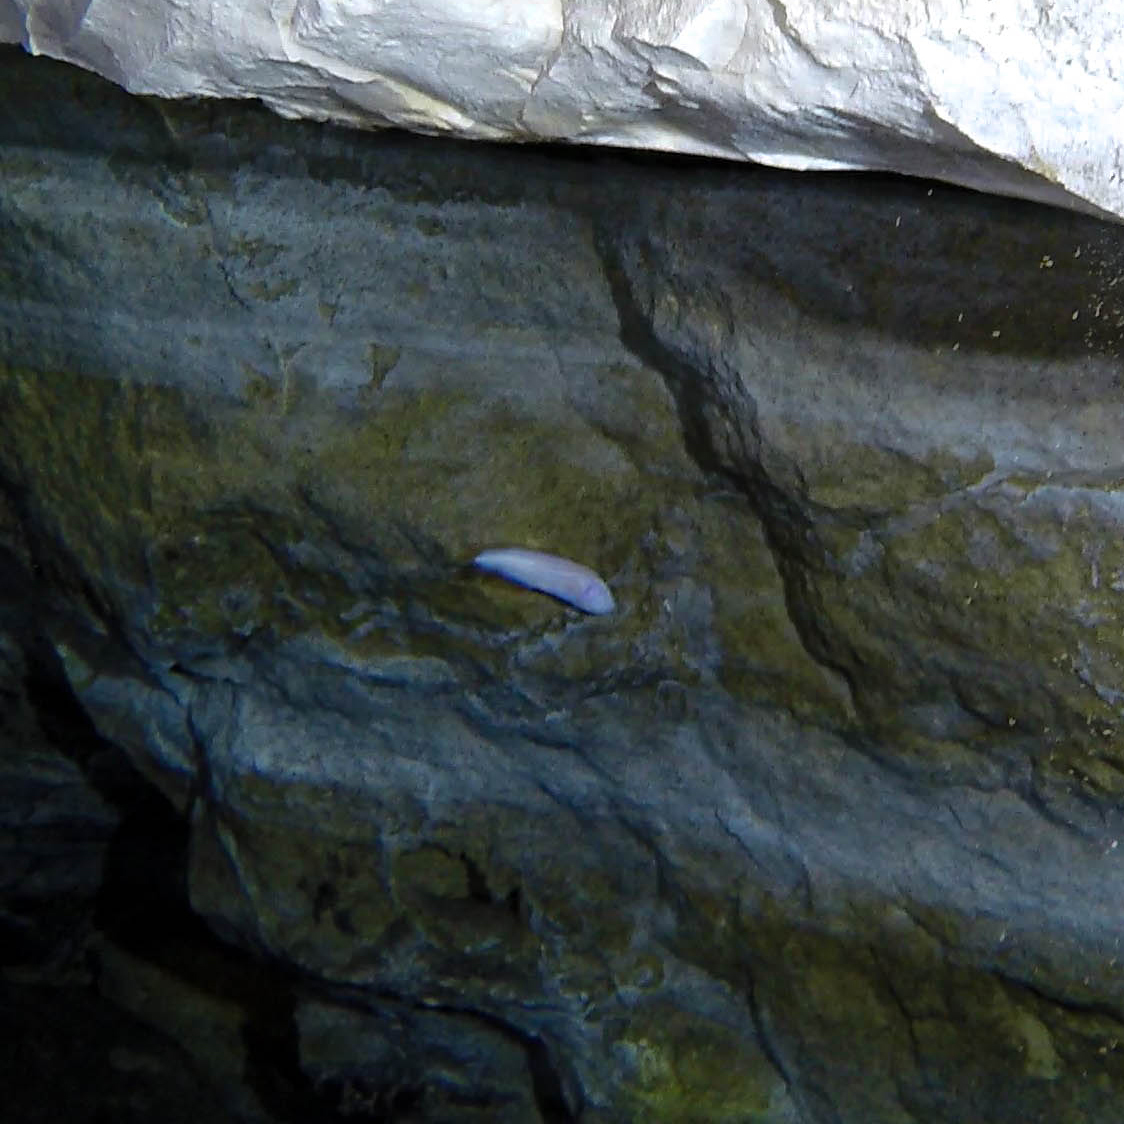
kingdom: Animalia
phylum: Chordata
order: Ophidiiformes
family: Bythitidae
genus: Typhliasina
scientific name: Typhliasina pearsei
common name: Dama ciega blanca
